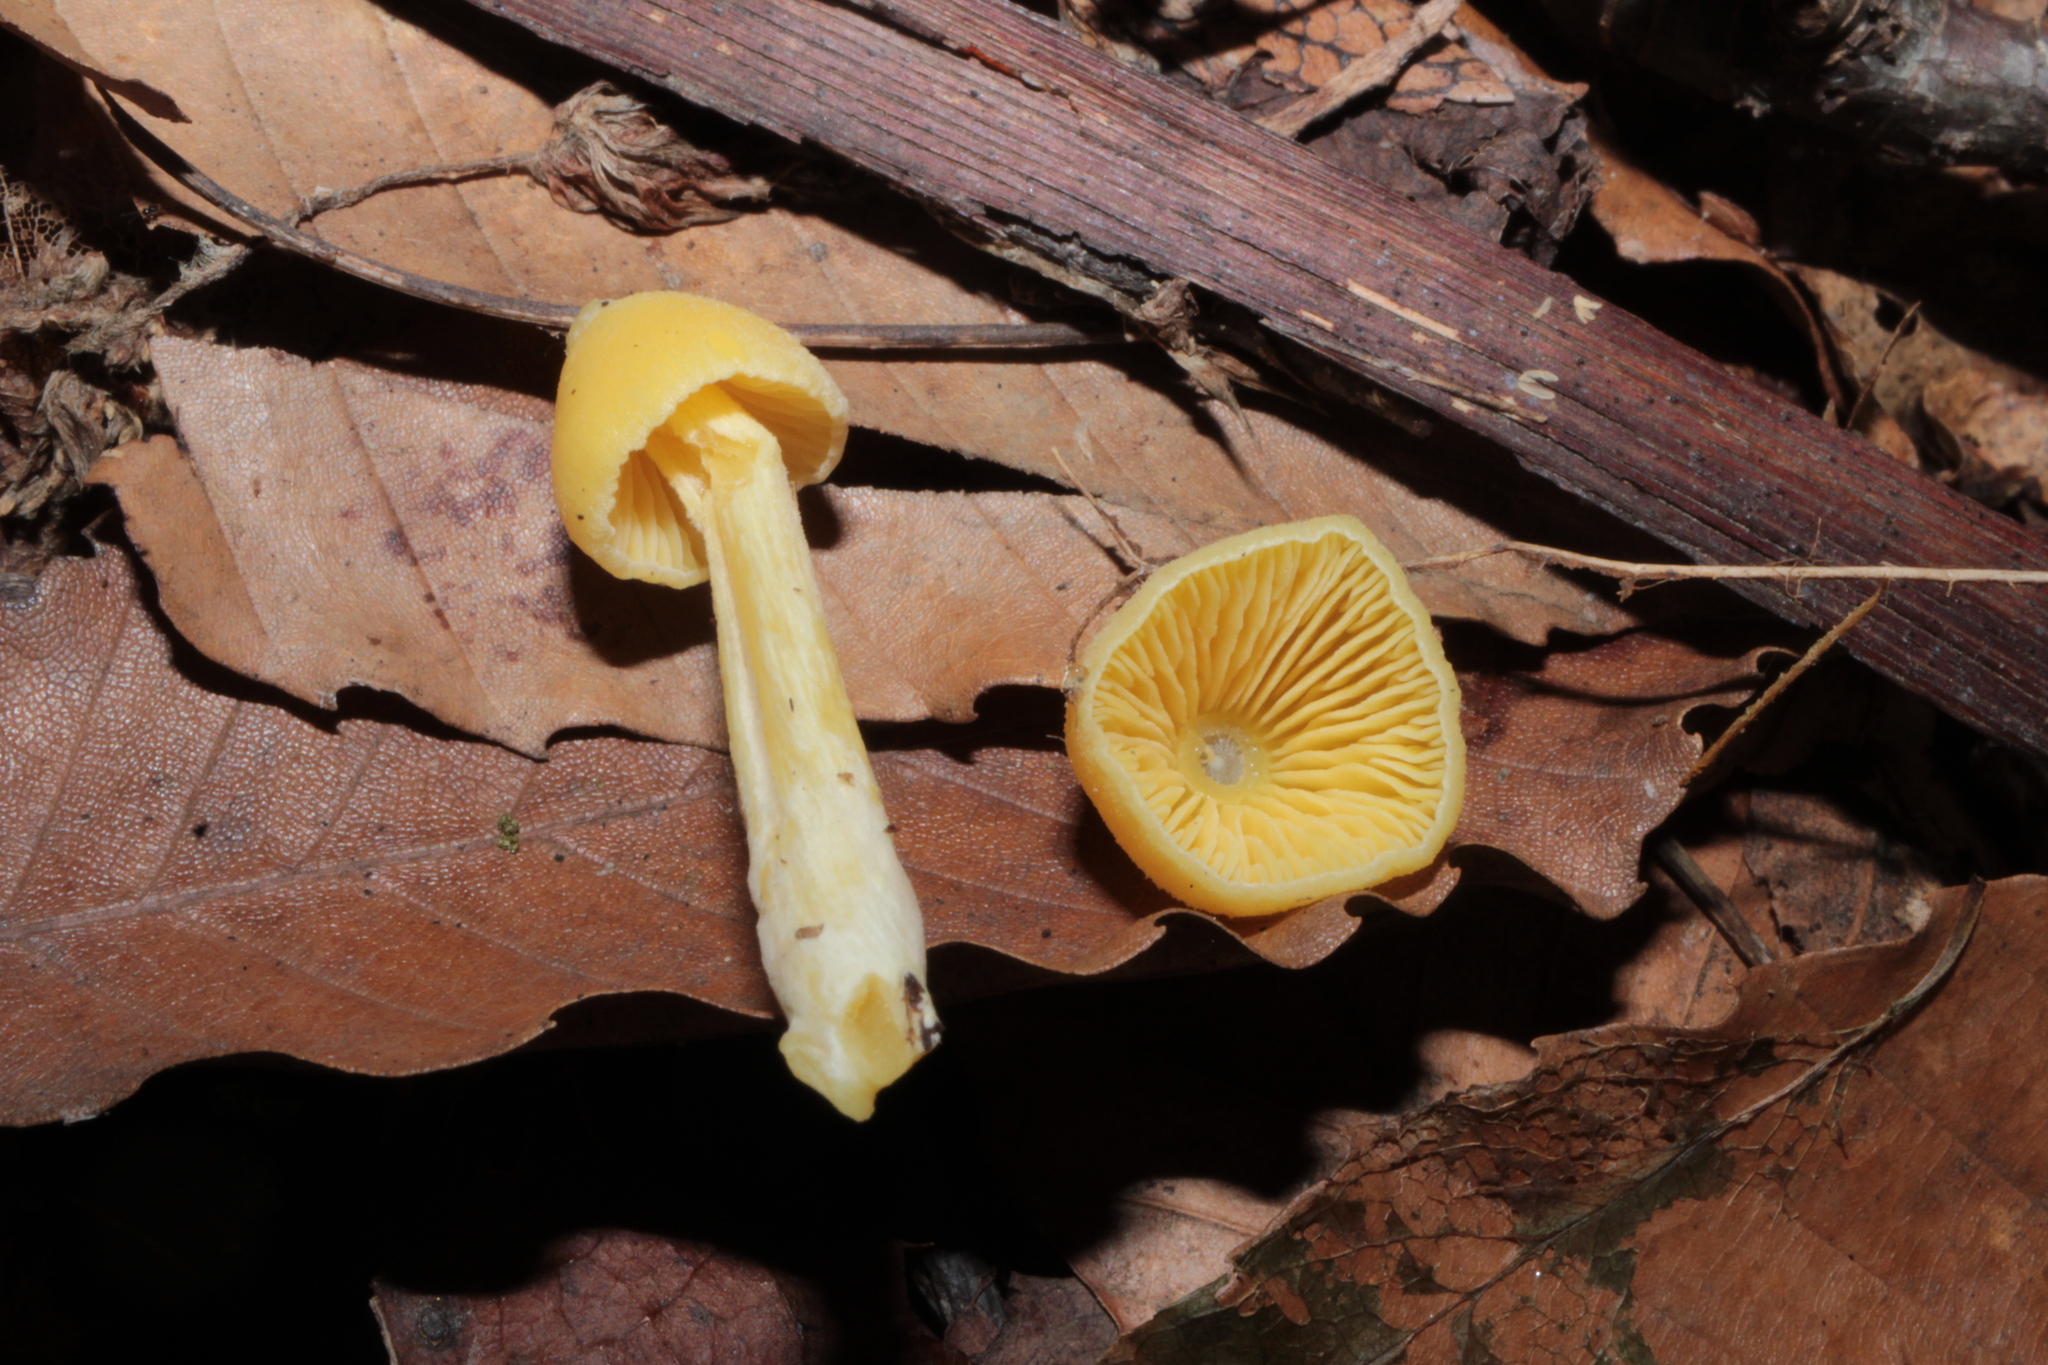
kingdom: Fungi
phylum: Basidiomycota
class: Agaricomycetes
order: Agaricales
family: Entolomataceae
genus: Entoloma
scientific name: Entoloma murrayi
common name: Yellow unicorn entoloma
